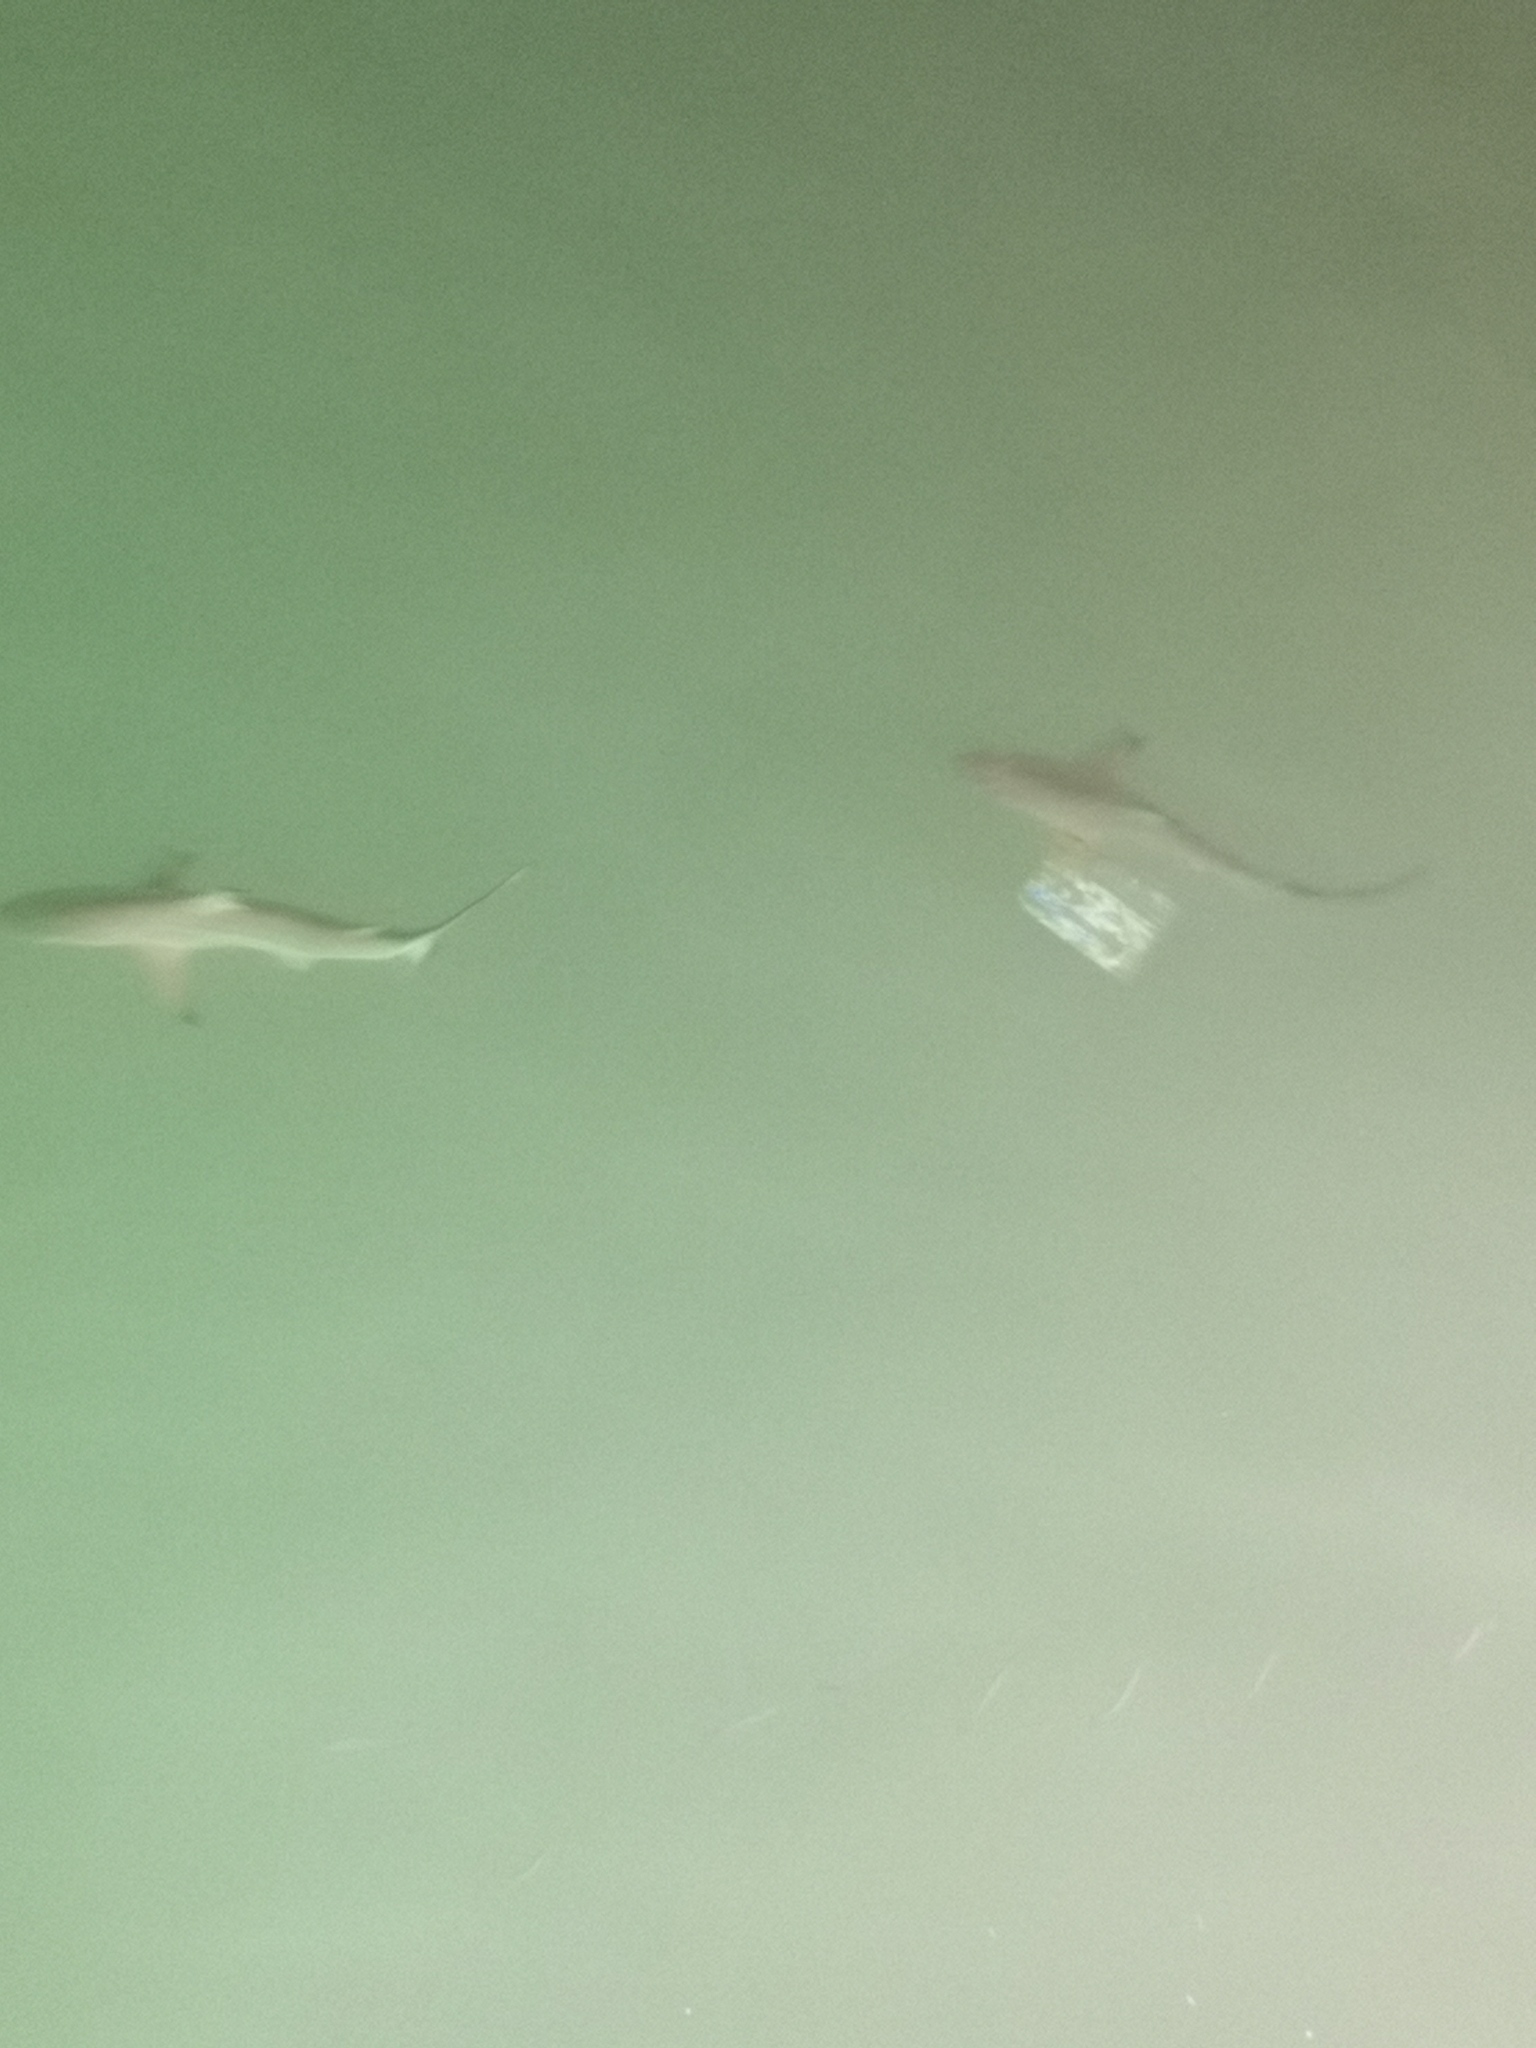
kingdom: Animalia
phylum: Chordata
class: Elasmobranchii
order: Carcharhiniformes
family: Carcharhinidae
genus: Carcharhinus
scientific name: Carcharhinus limbatus
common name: Blacktip shark
